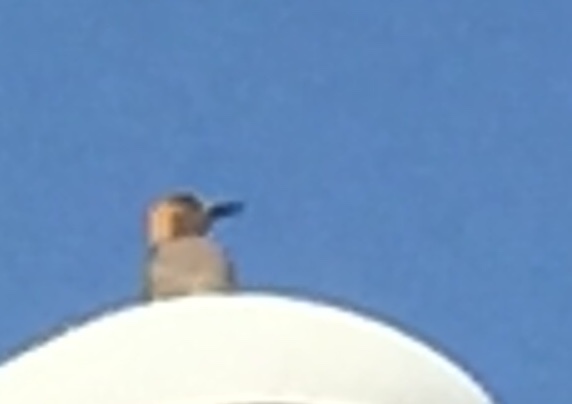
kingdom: Animalia
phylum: Chordata
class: Aves
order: Piciformes
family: Picidae
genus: Melanerpes
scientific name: Melanerpes chrysogenys
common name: Golden-cheeked woodpecker
